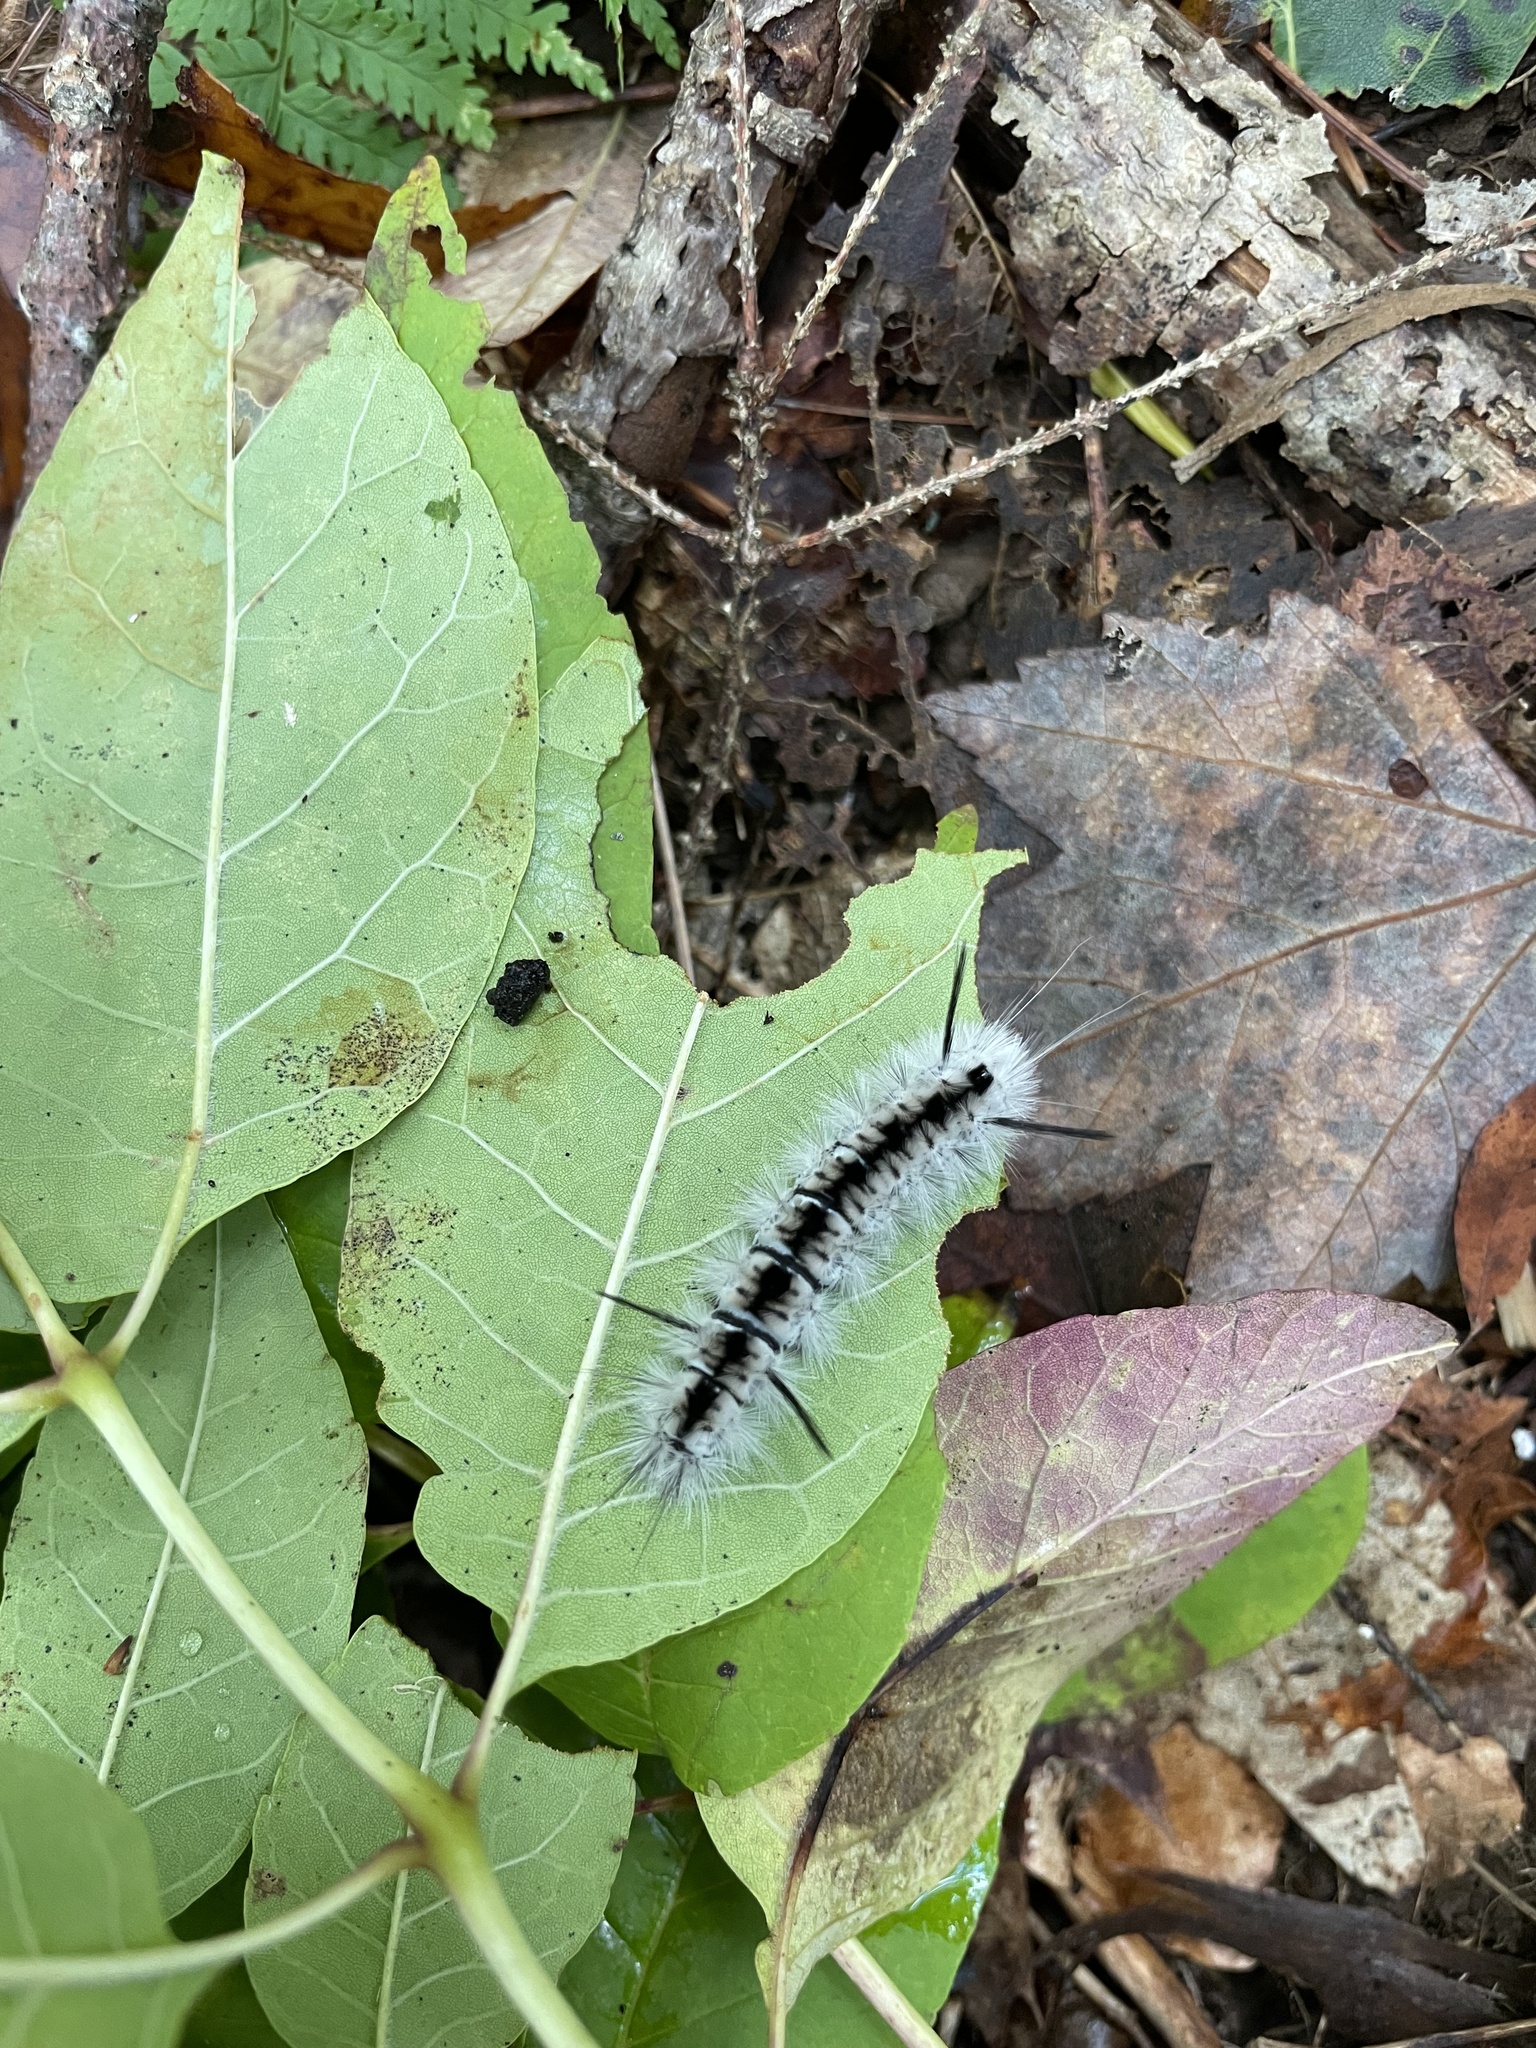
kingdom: Animalia
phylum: Arthropoda
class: Insecta
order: Lepidoptera
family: Erebidae
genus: Lophocampa
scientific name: Lophocampa caryae
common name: Hickory tussock moth
